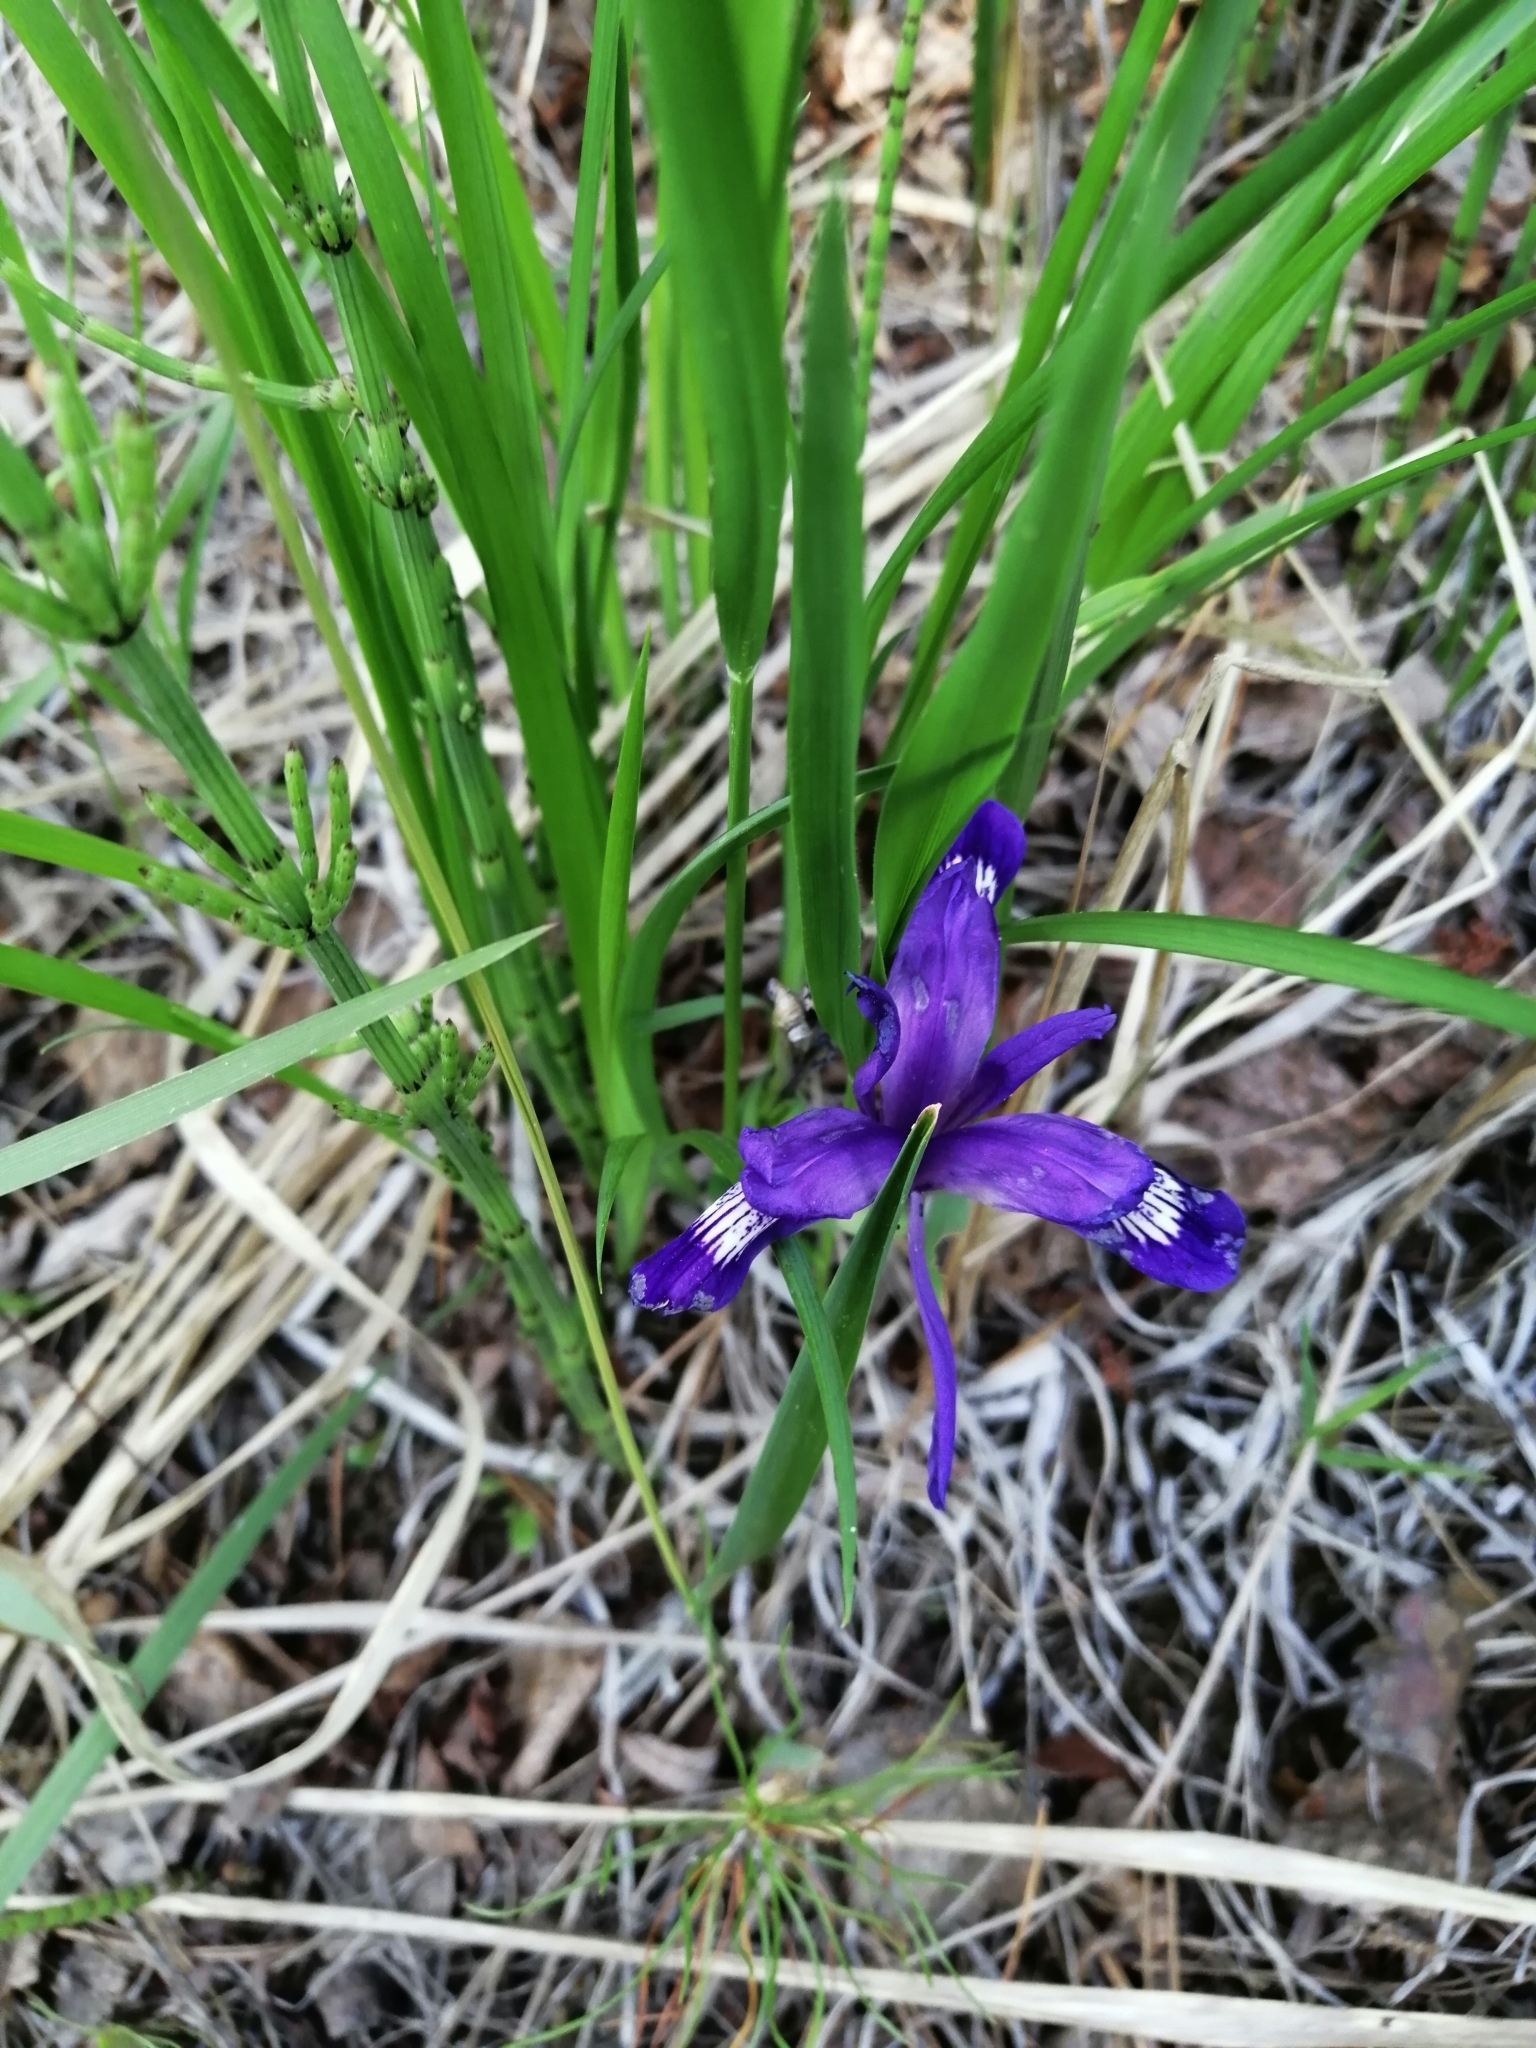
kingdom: Plantae
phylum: Tracheophyta
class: Liliopsida
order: Asparagales
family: Iridaceae
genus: Iris
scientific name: Iris ruthenica
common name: Purple-bract iris
